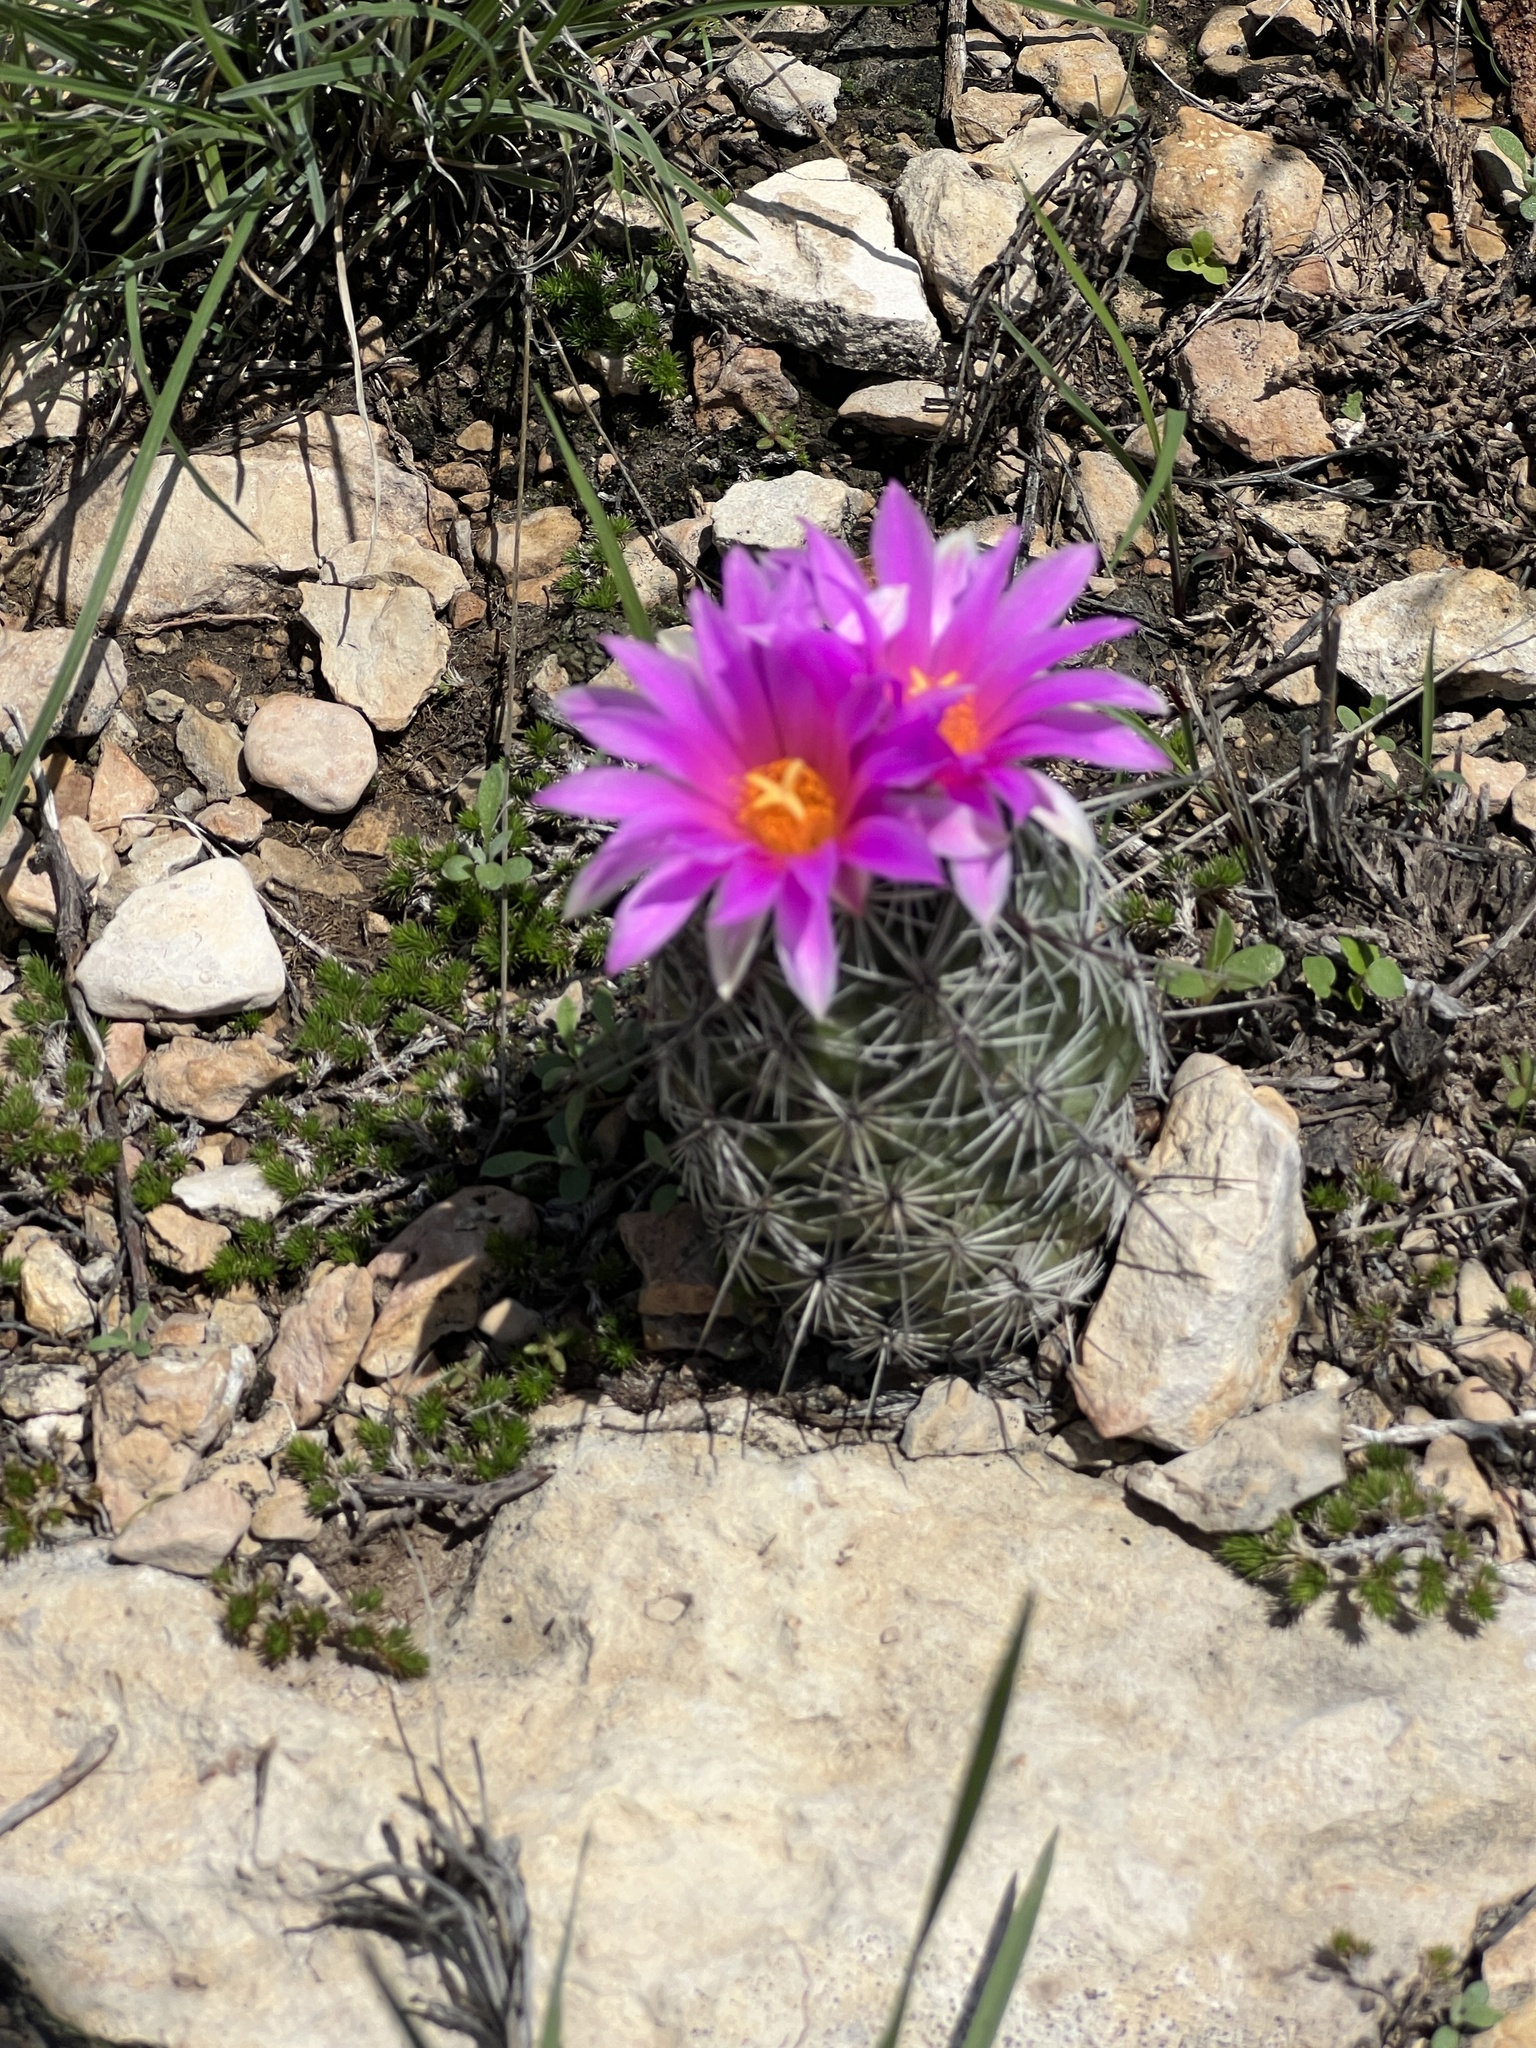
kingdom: Plantae
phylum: Tracheophyta
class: Magnoliopsida
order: Caryophyllales
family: Cactaceae
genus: Cochemiea
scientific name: Cochemiea conoidea
